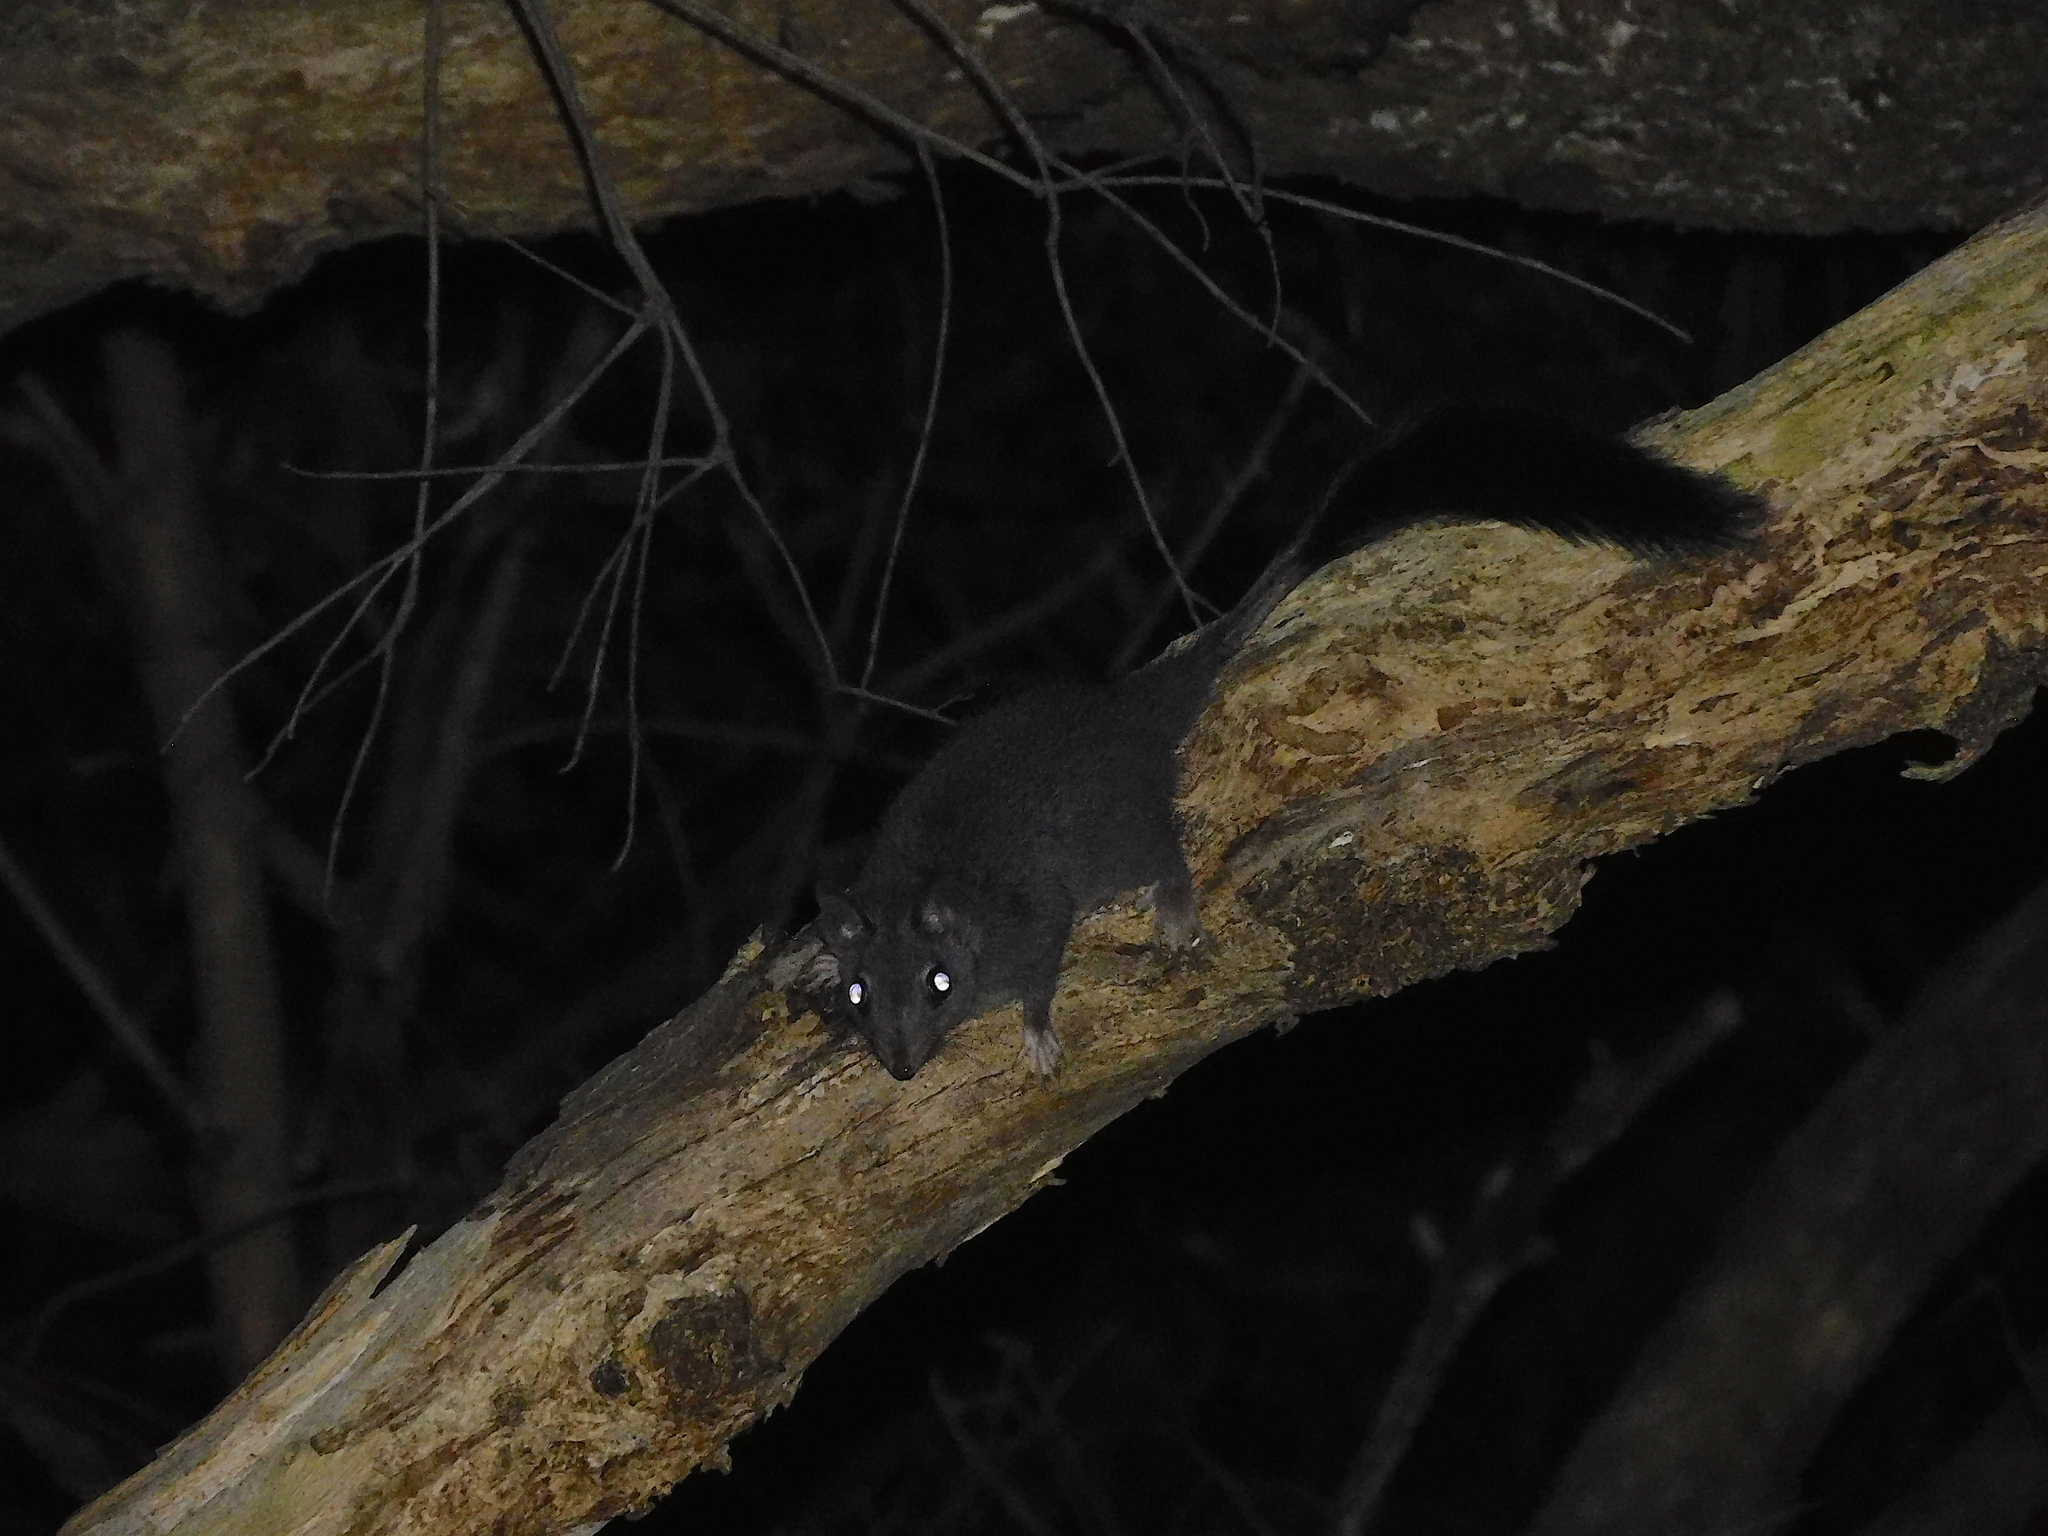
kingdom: Animalia
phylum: Chordata
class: Mammalia
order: Dasyuromorphia
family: Dasyuridae
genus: Phascogale
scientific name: Phascogale tapoatafa
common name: Brush-tailed phascogale
